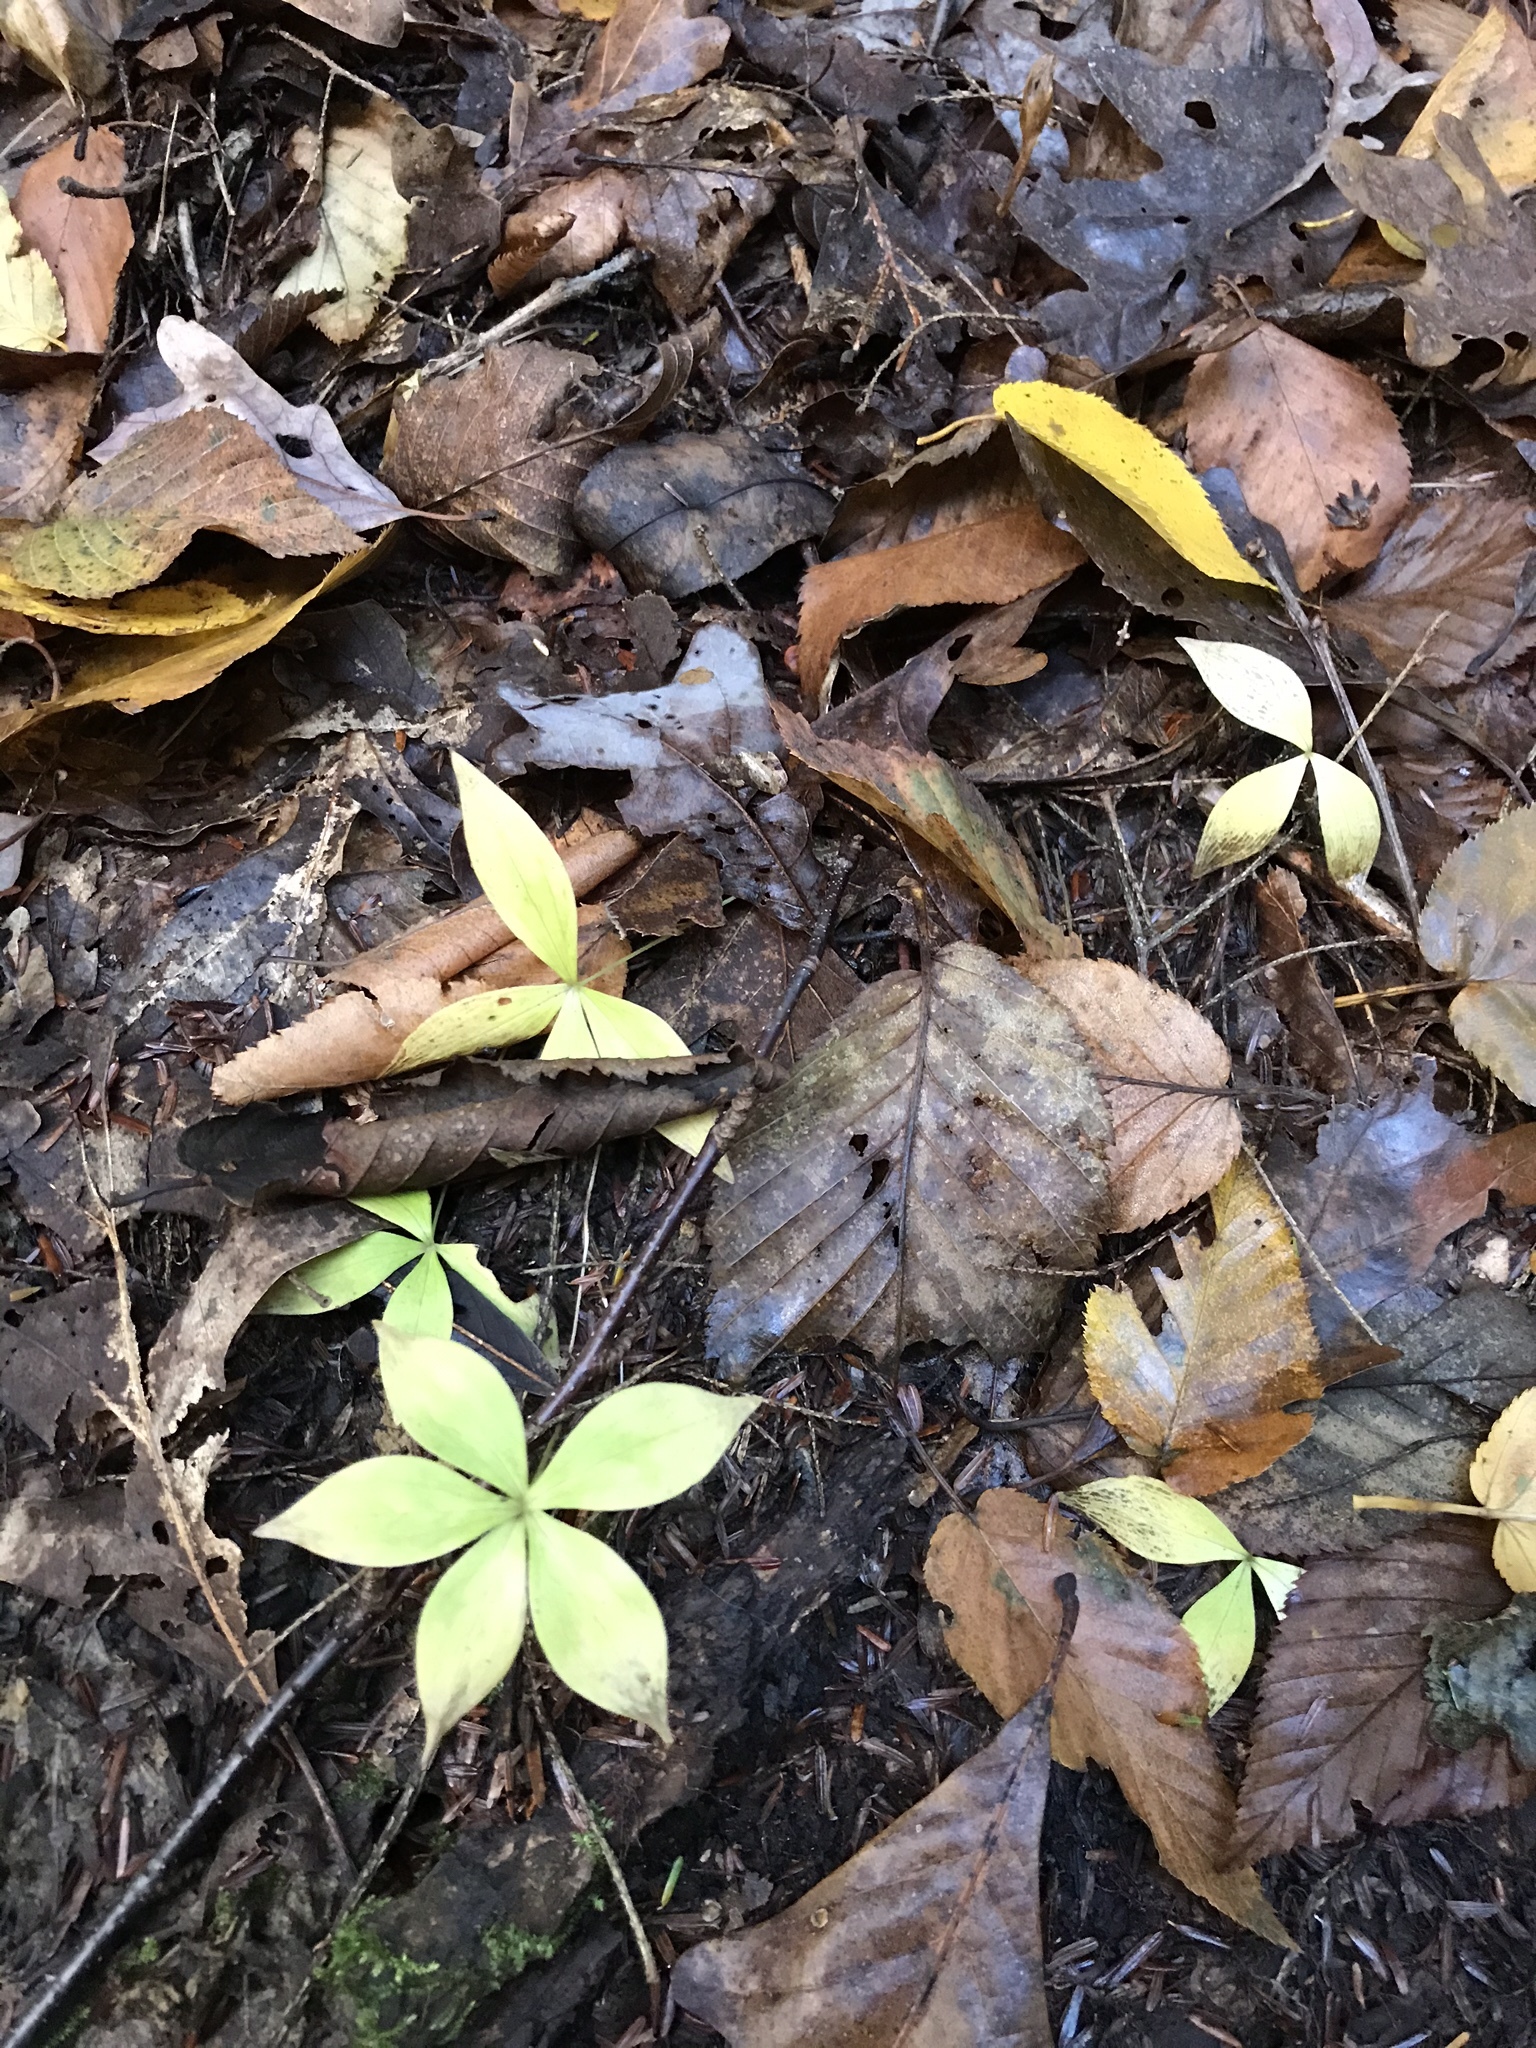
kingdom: Plantae
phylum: Tracheophyta
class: Liliopsida
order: Liliales
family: Liliaceae
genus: Medeola
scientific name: Medeola virginiana
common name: Indian cucumber-root
